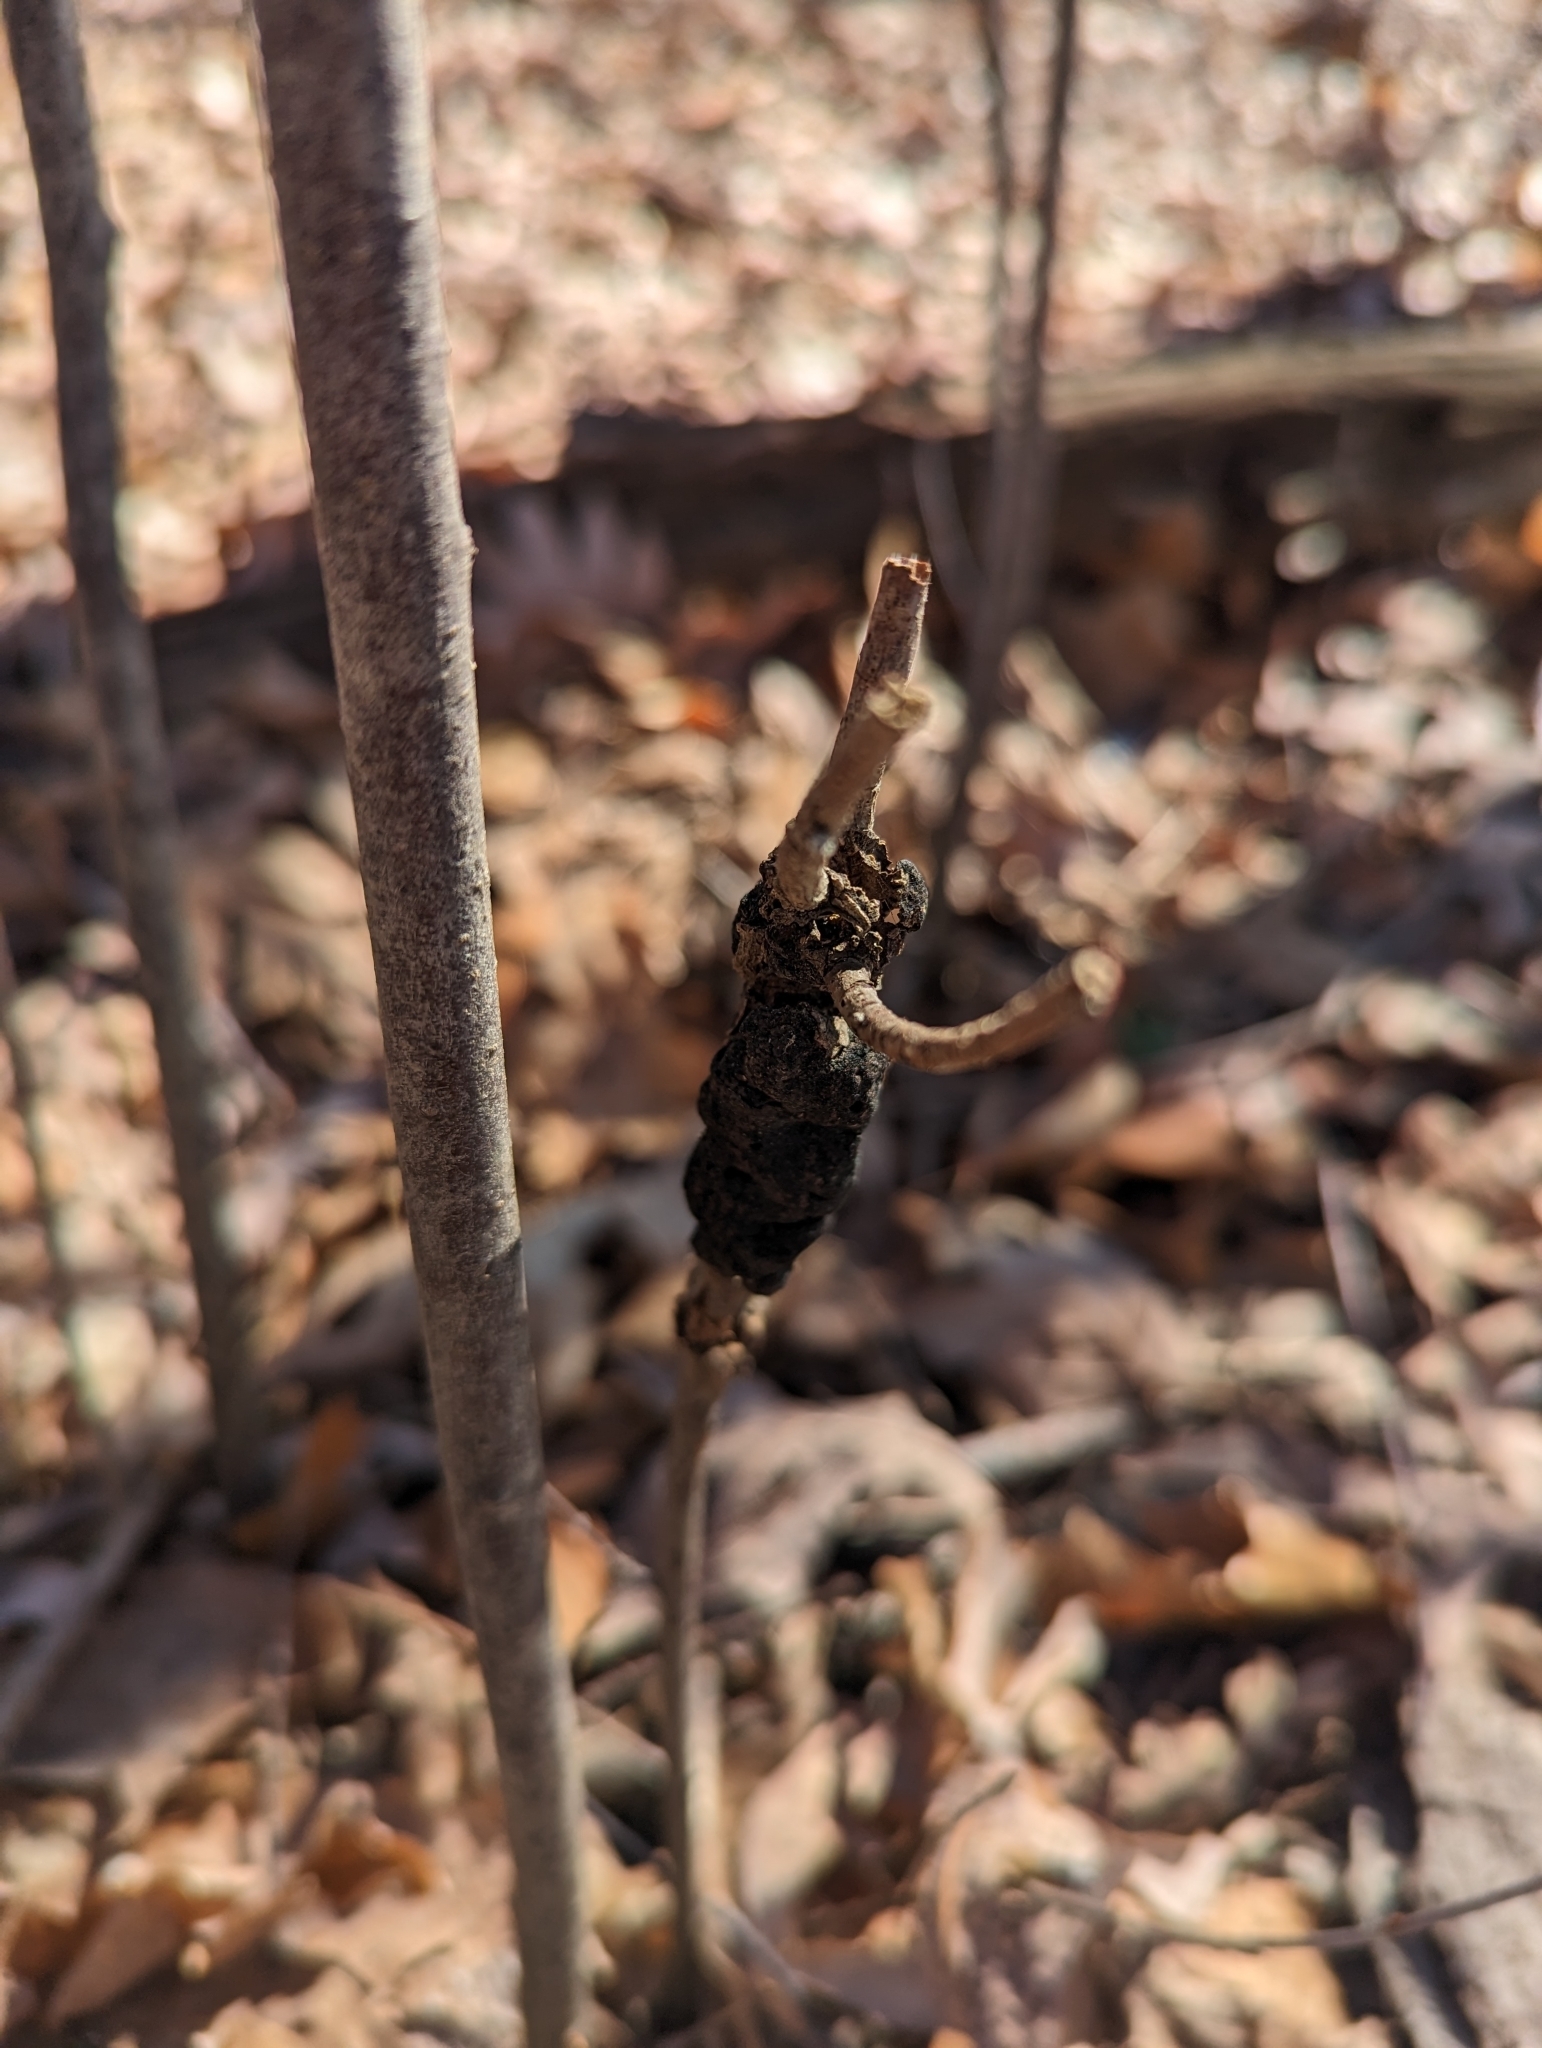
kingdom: Fungi
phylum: Ascomycota
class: Dothideomycetes
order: Venturiales
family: Venturiaceae
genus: Apiosporina
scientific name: Apiosporina morbosa
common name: Black knot
